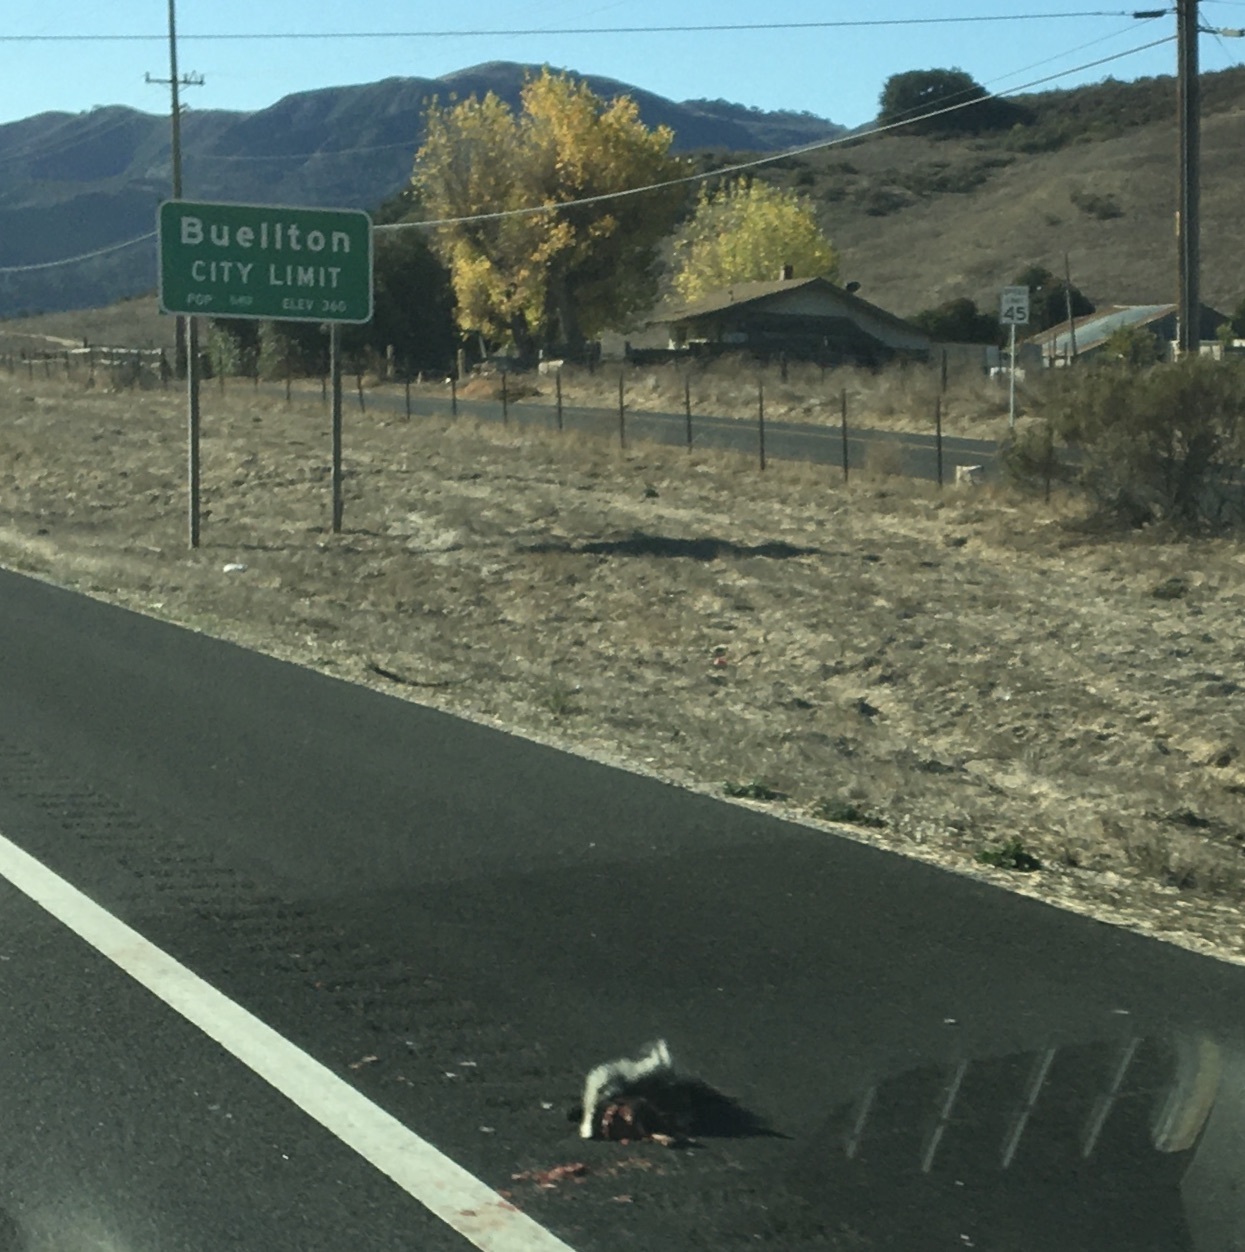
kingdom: Animalia
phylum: Chordata
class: Mammalia
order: Carnivora
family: Mephitidae
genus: Mephitis
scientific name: Mephitis mephitis
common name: Striped skunk
